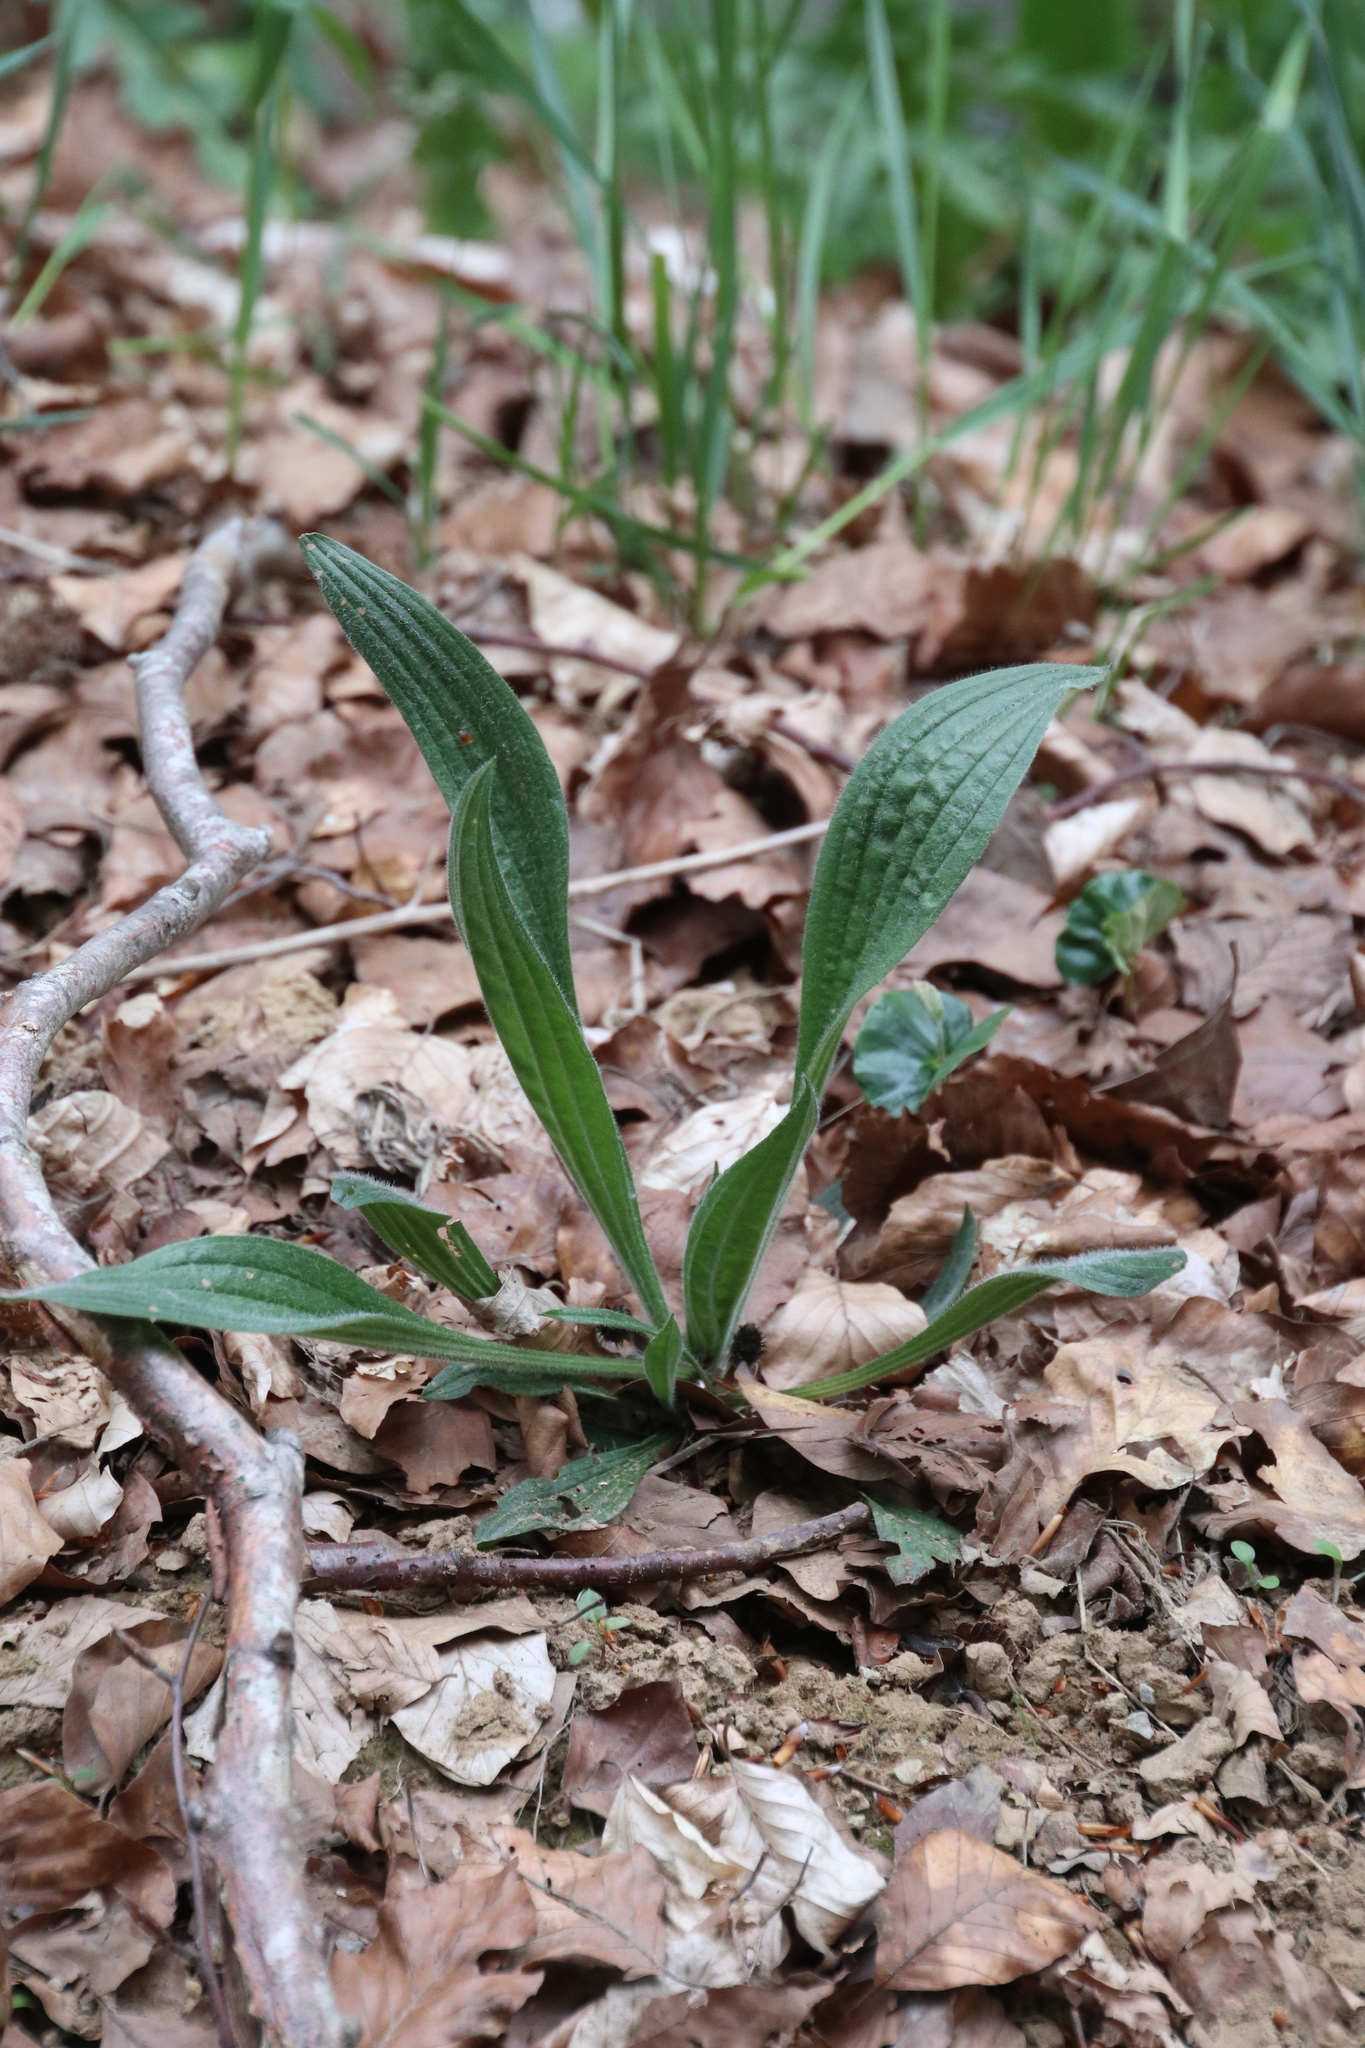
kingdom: Plantae
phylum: Tracheophyta
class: Magnoliopsida
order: Lamiales
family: Plantaginaceae
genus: Plantago
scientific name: Plantago lanceolata
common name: Ribwort plantain
